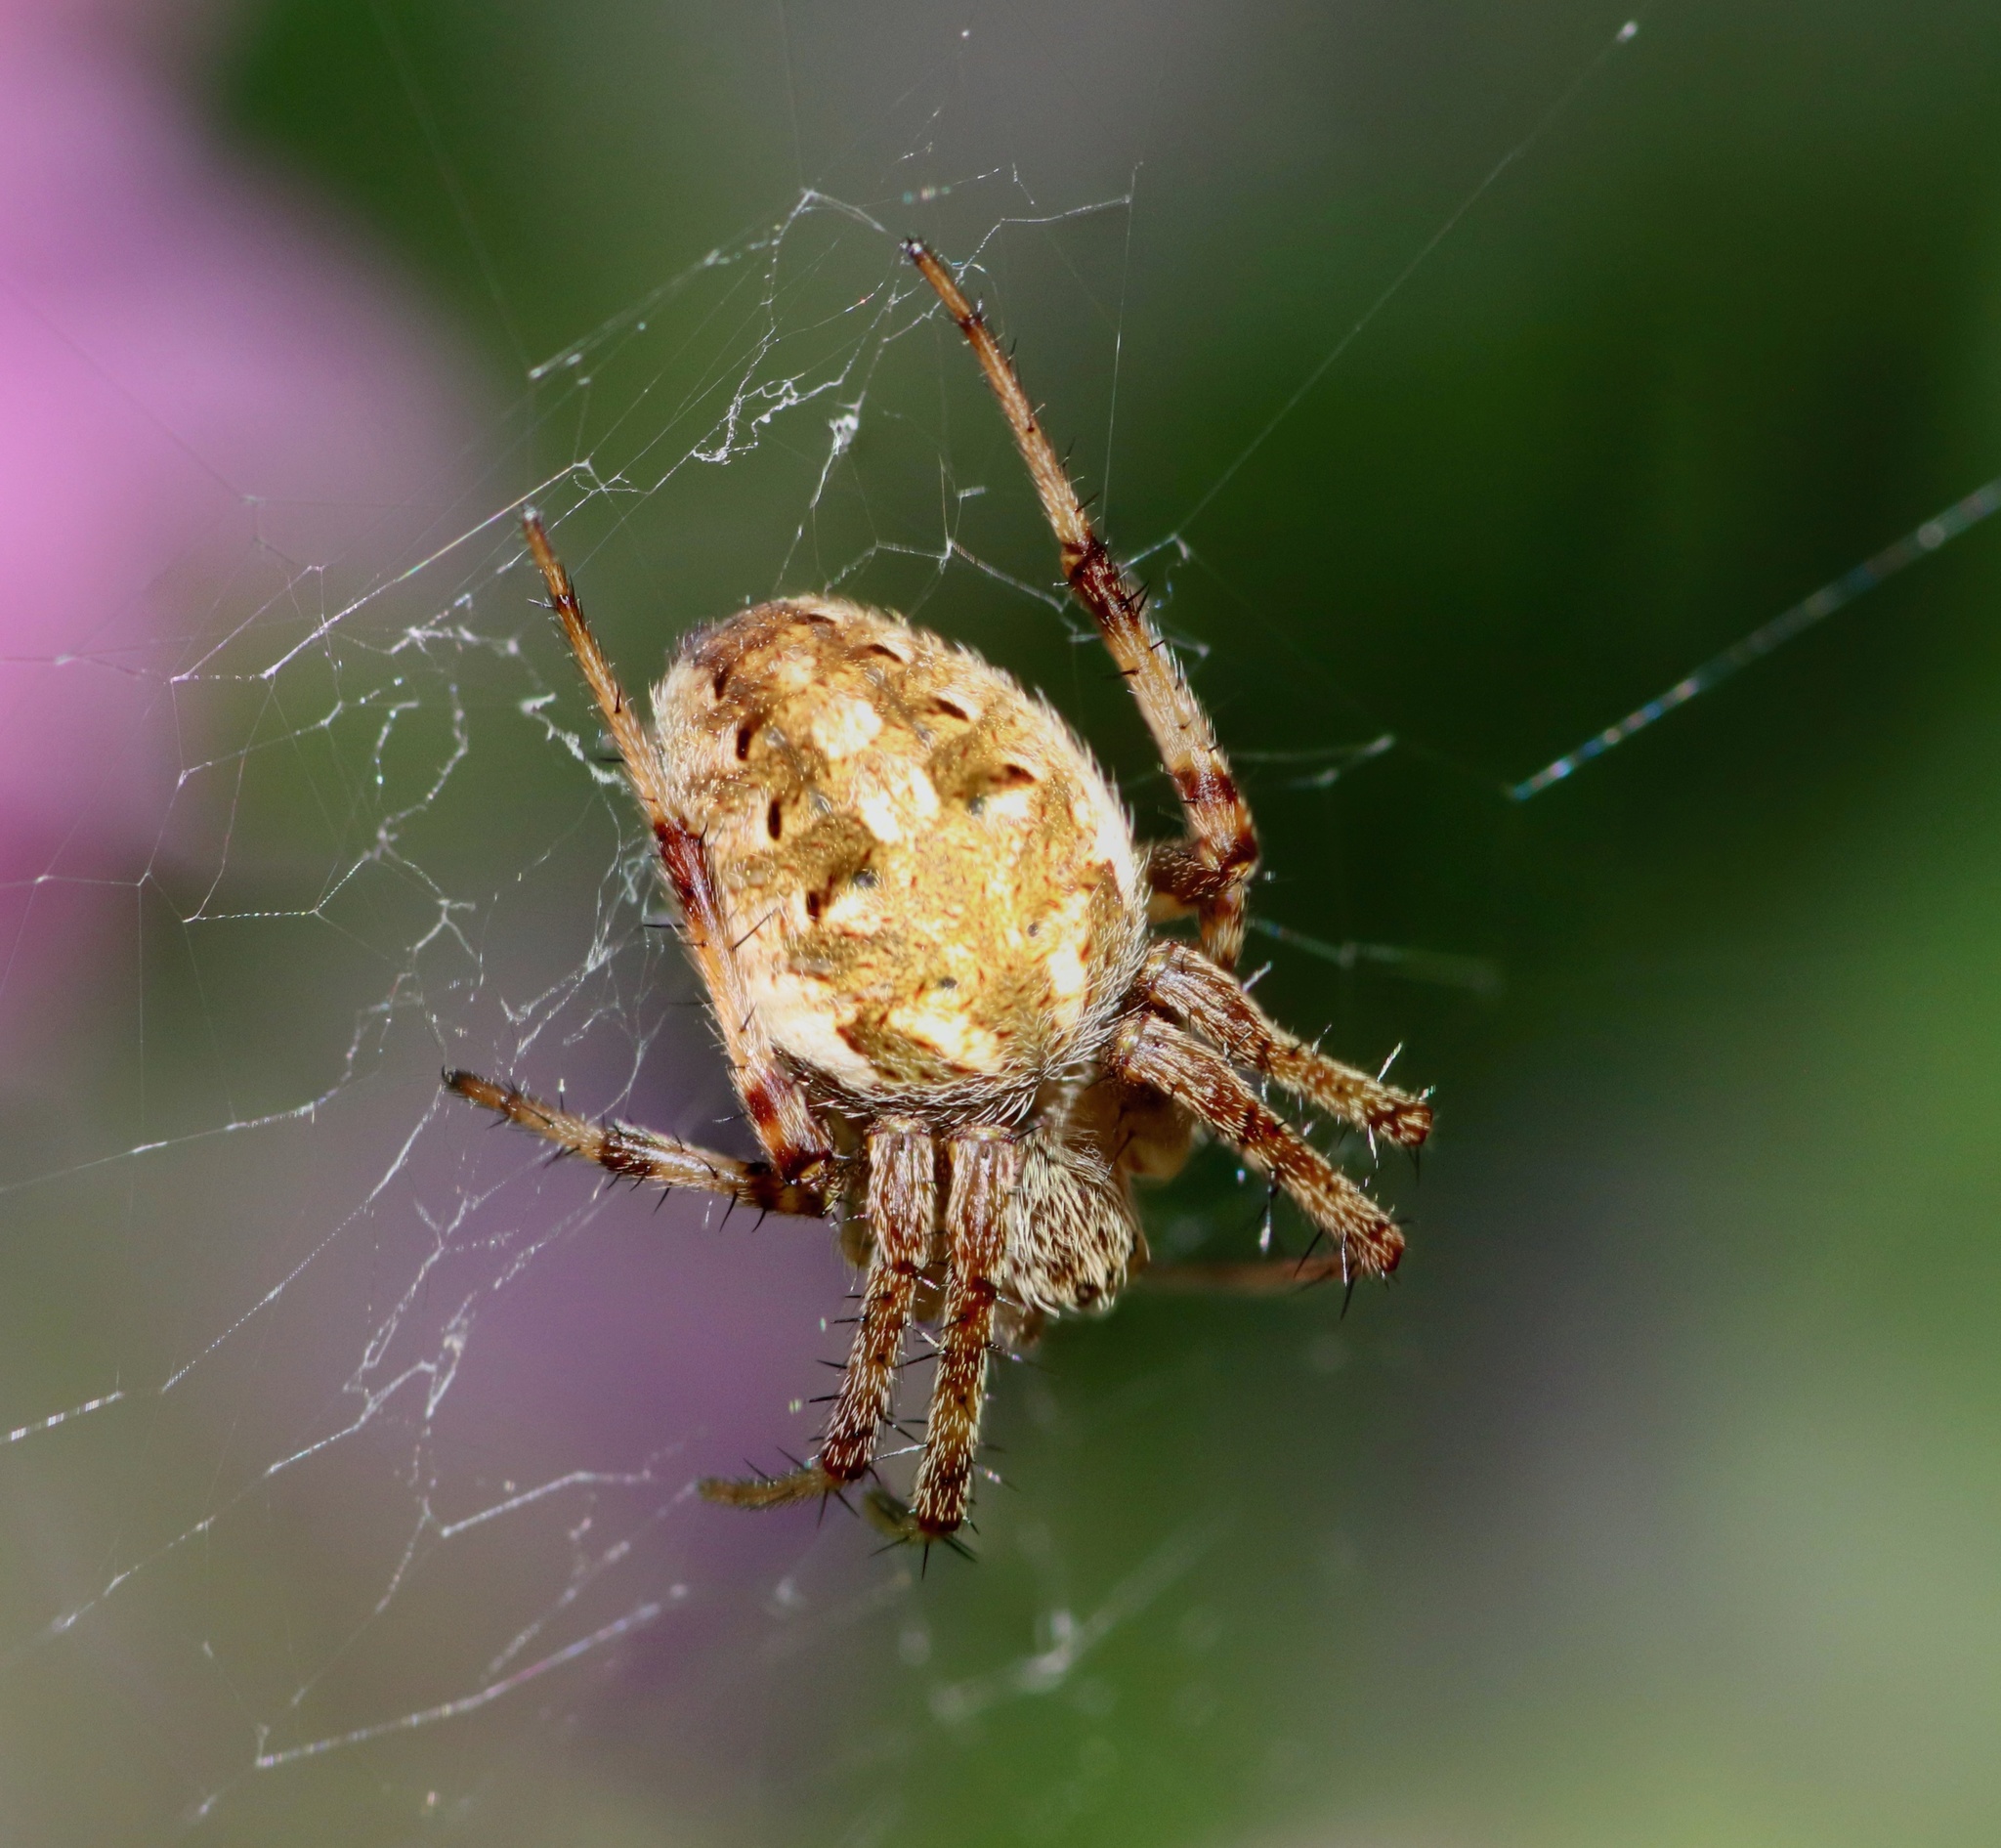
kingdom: Animalia
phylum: Arthropoda
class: Arachnida
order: Araneae
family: Araneidae
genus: Neoscona
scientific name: Neoscona arabesca
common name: Orb weavers
